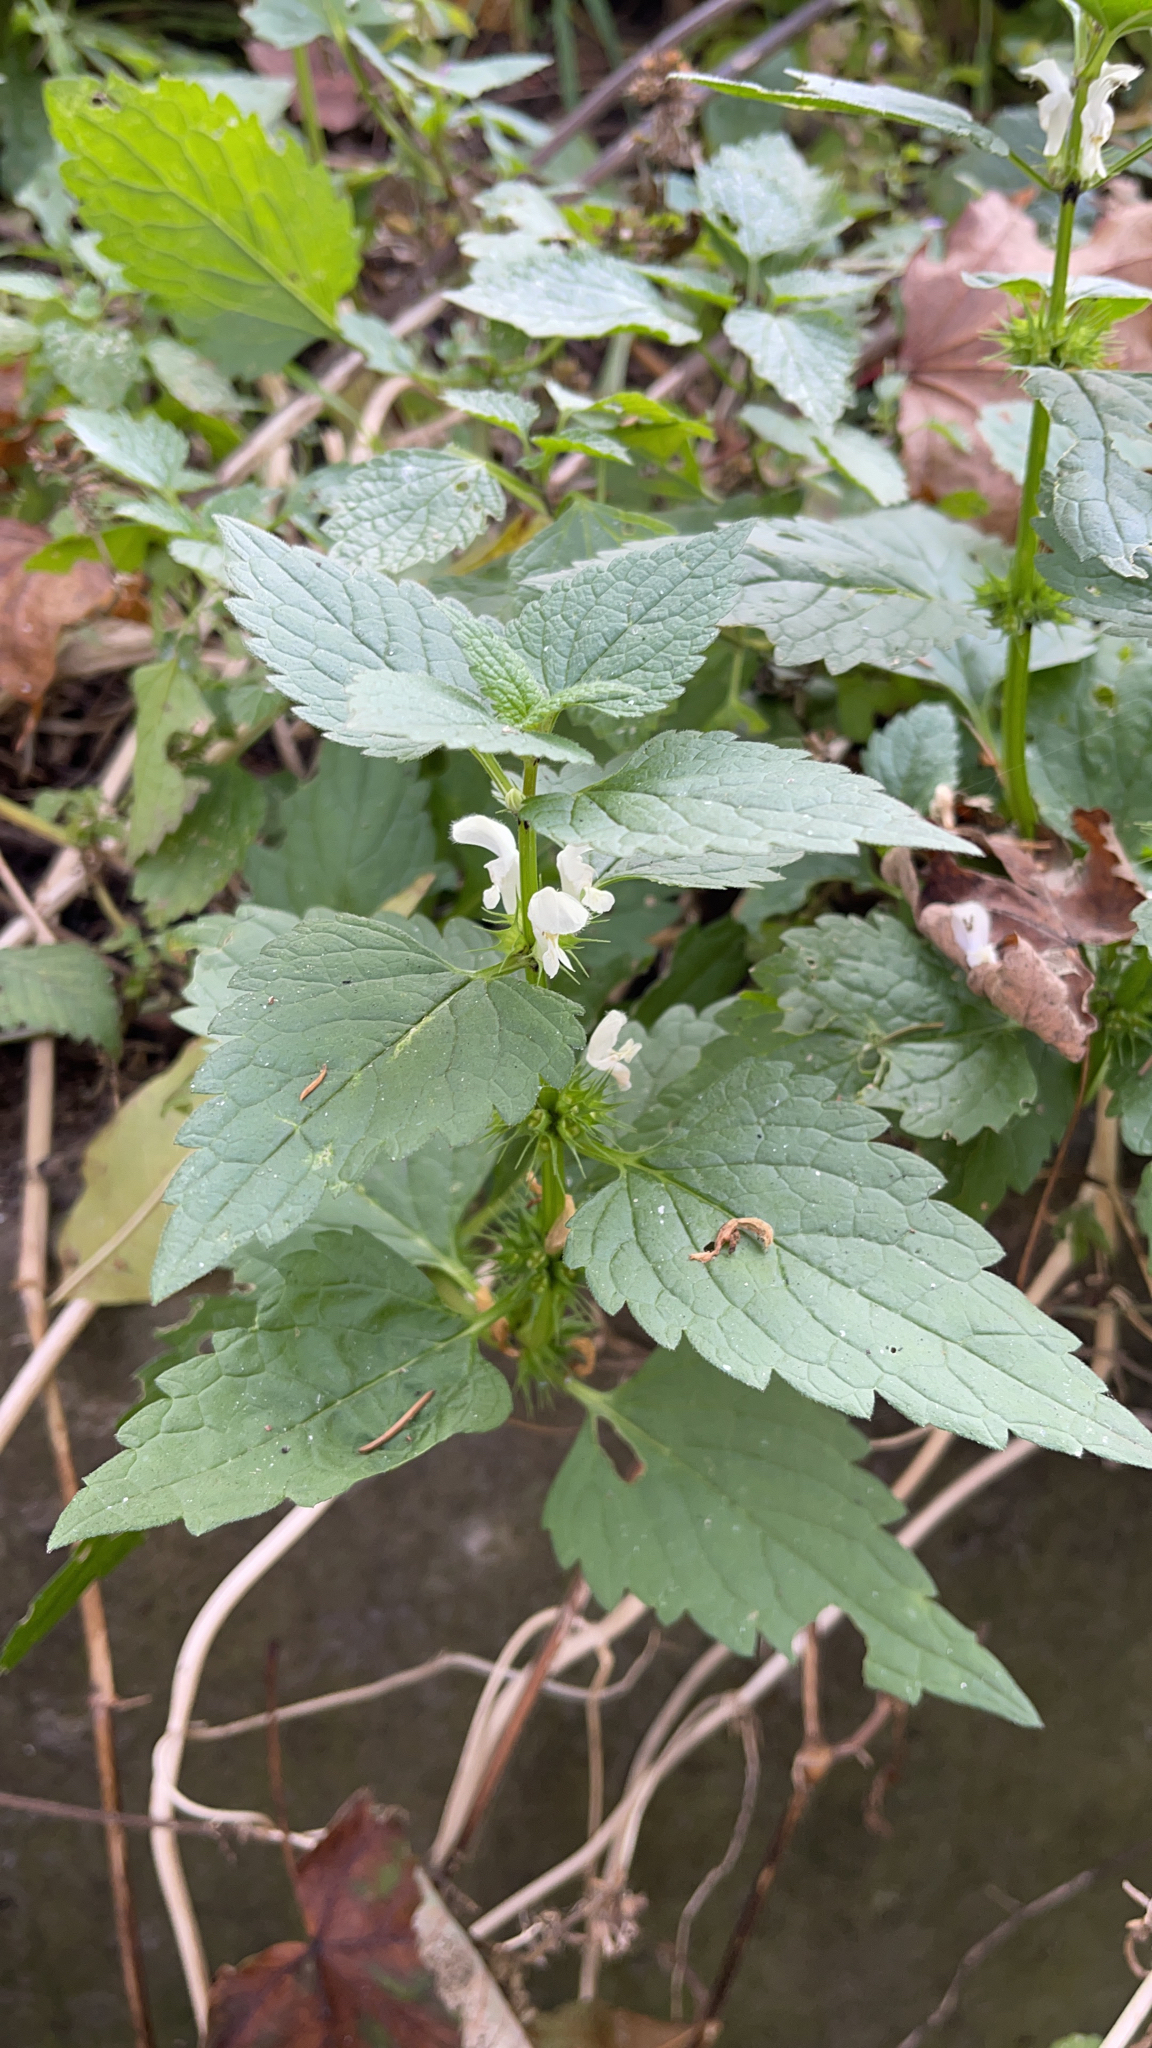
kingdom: Plantae
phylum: Tracheophyta
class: Magnoliopsida
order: Lamiales
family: Lamiaceae
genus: Lamium
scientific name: Lamium album
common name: White dead-nettle
